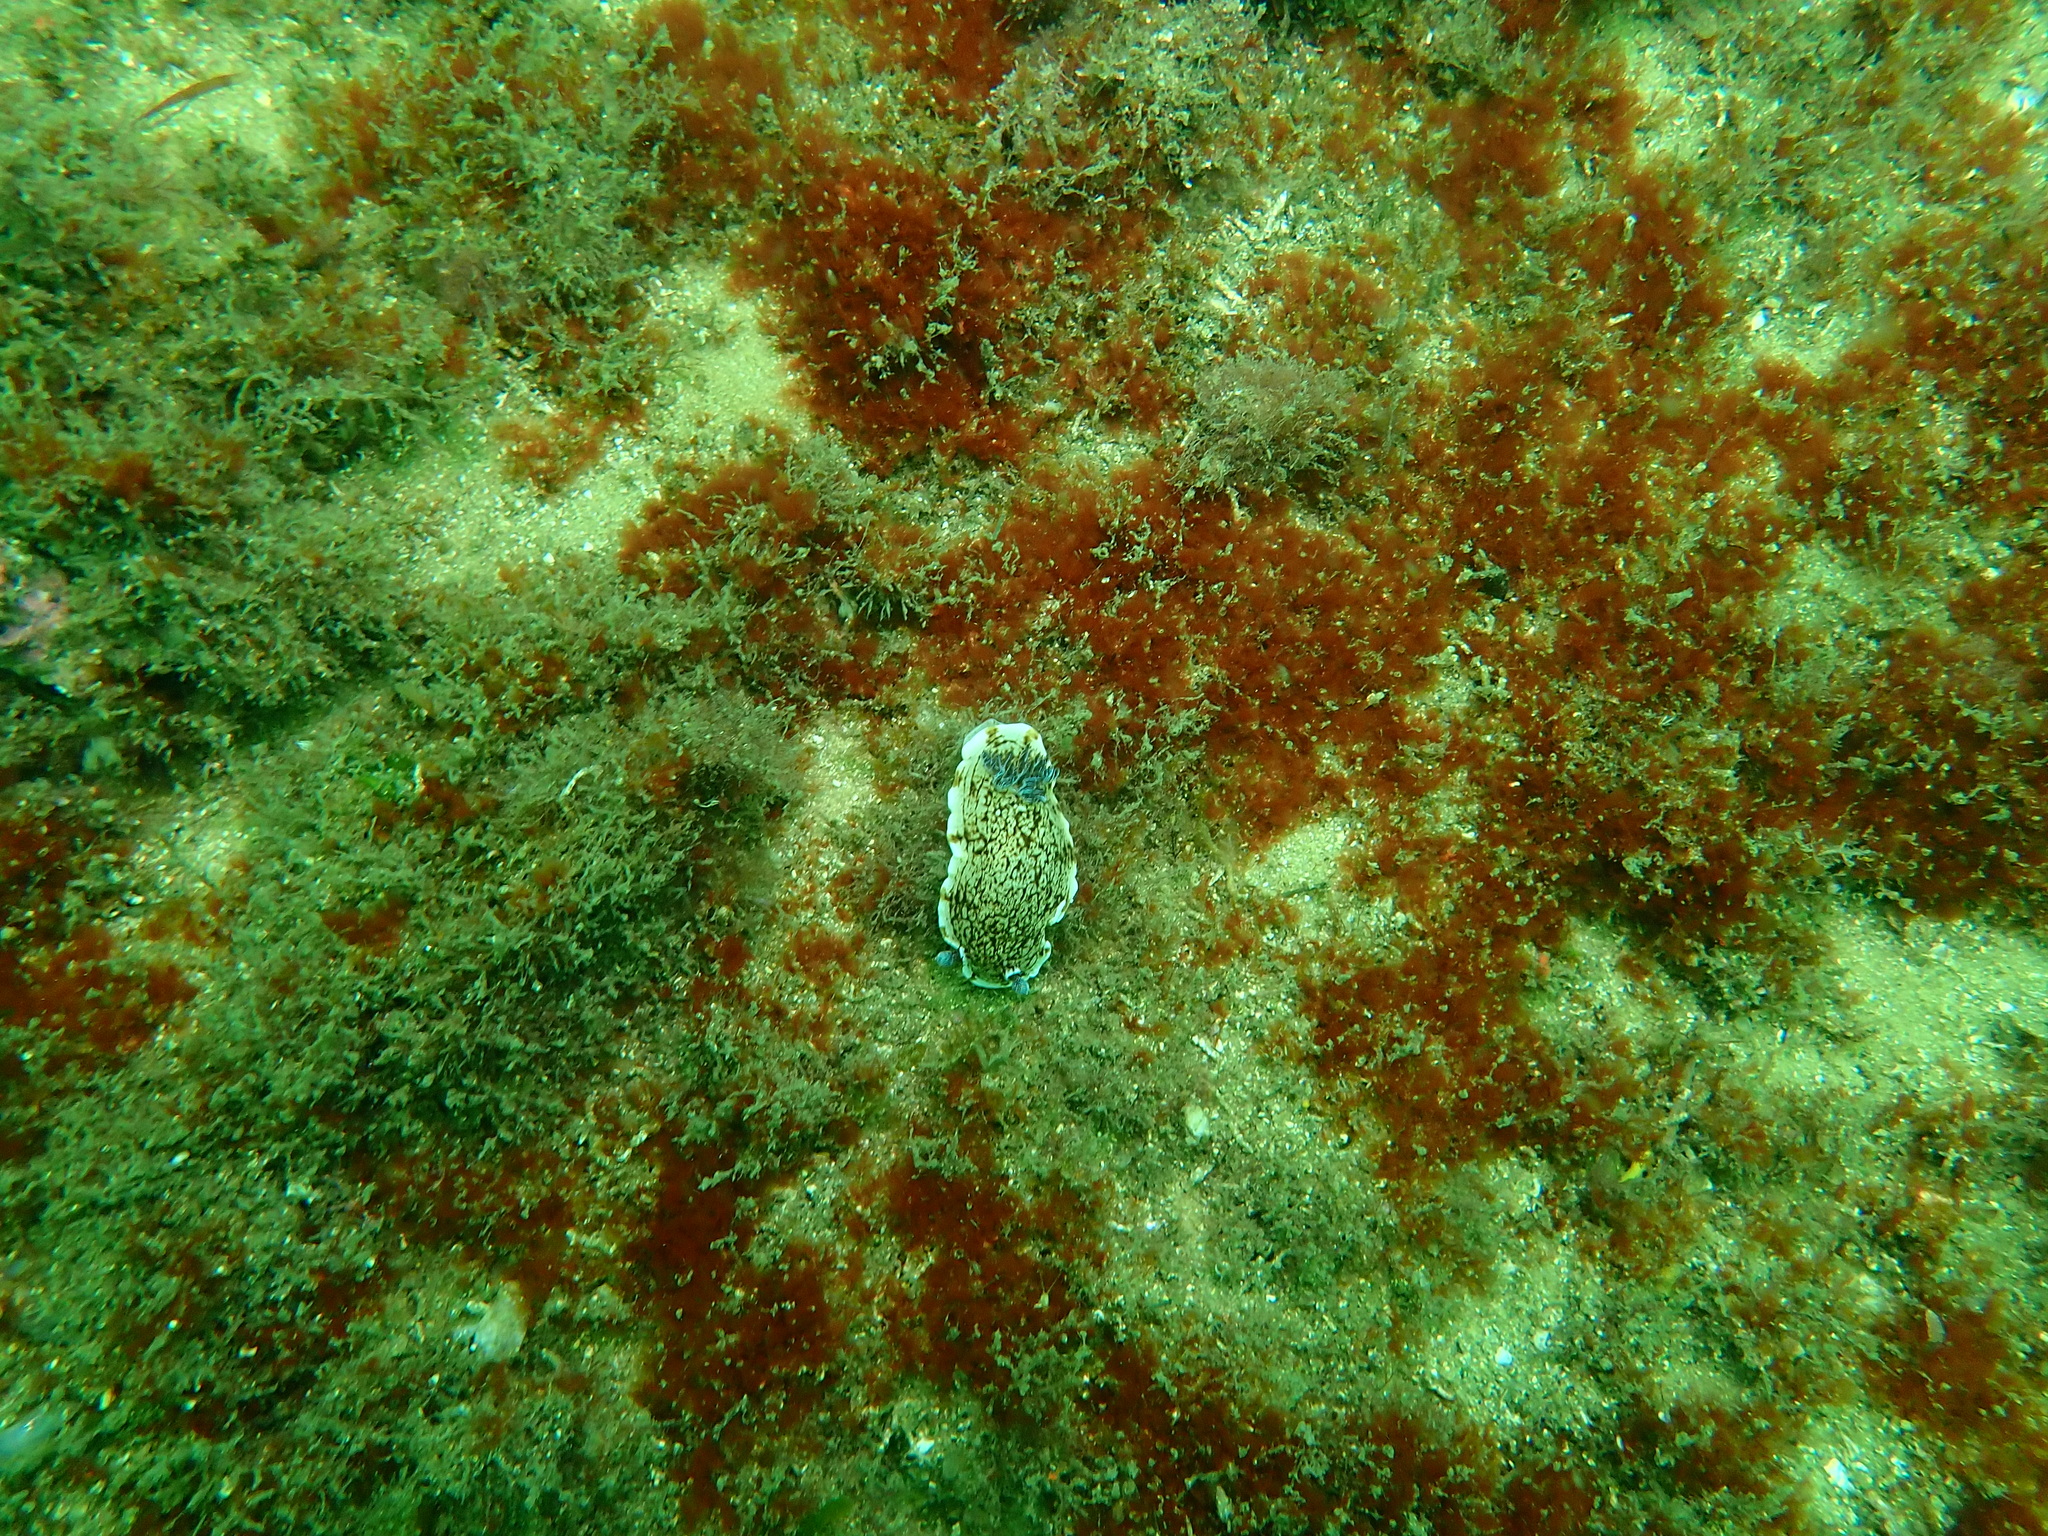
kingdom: Animalia
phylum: Mollusca
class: Gastropoda
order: Nudibranchia
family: Dorididae
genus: Aphelodoris
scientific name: Aphelodoris varia
